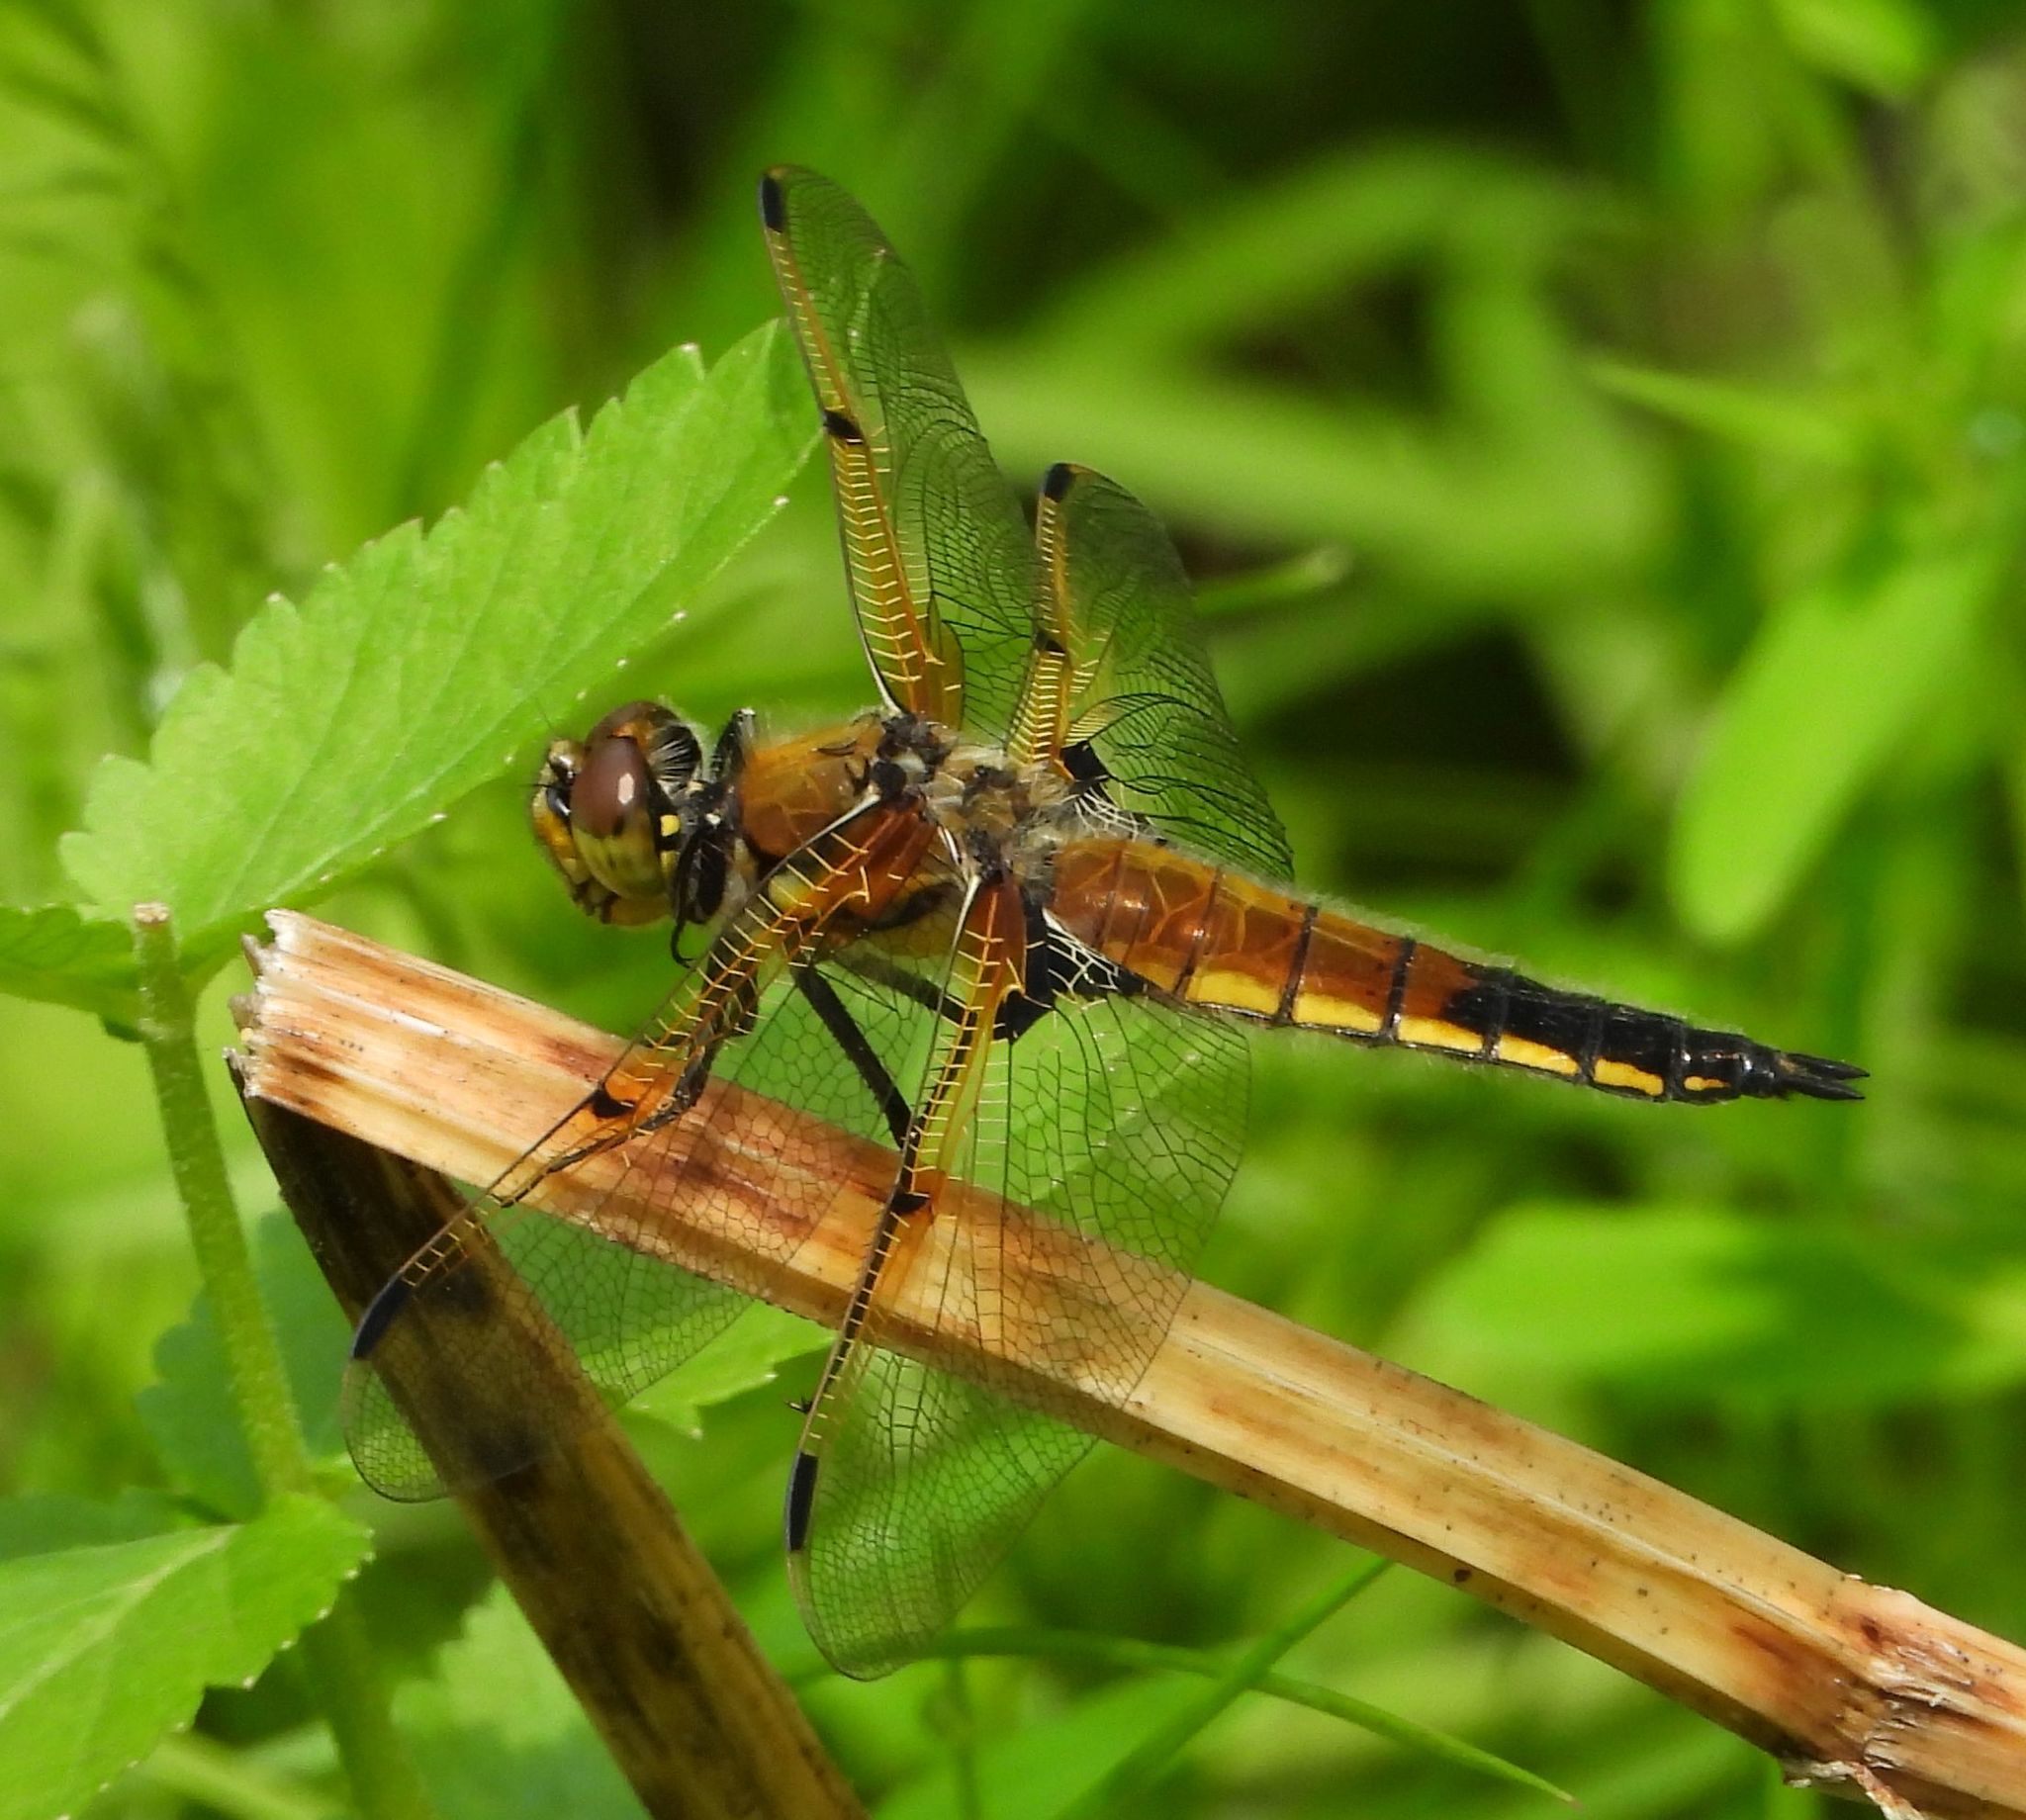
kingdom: Animalia
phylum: Arthropoda
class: Insecta
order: Odonata
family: Libellulidae
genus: Libellula
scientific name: Libellula quadrimaculata
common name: Four-spotted chaser
